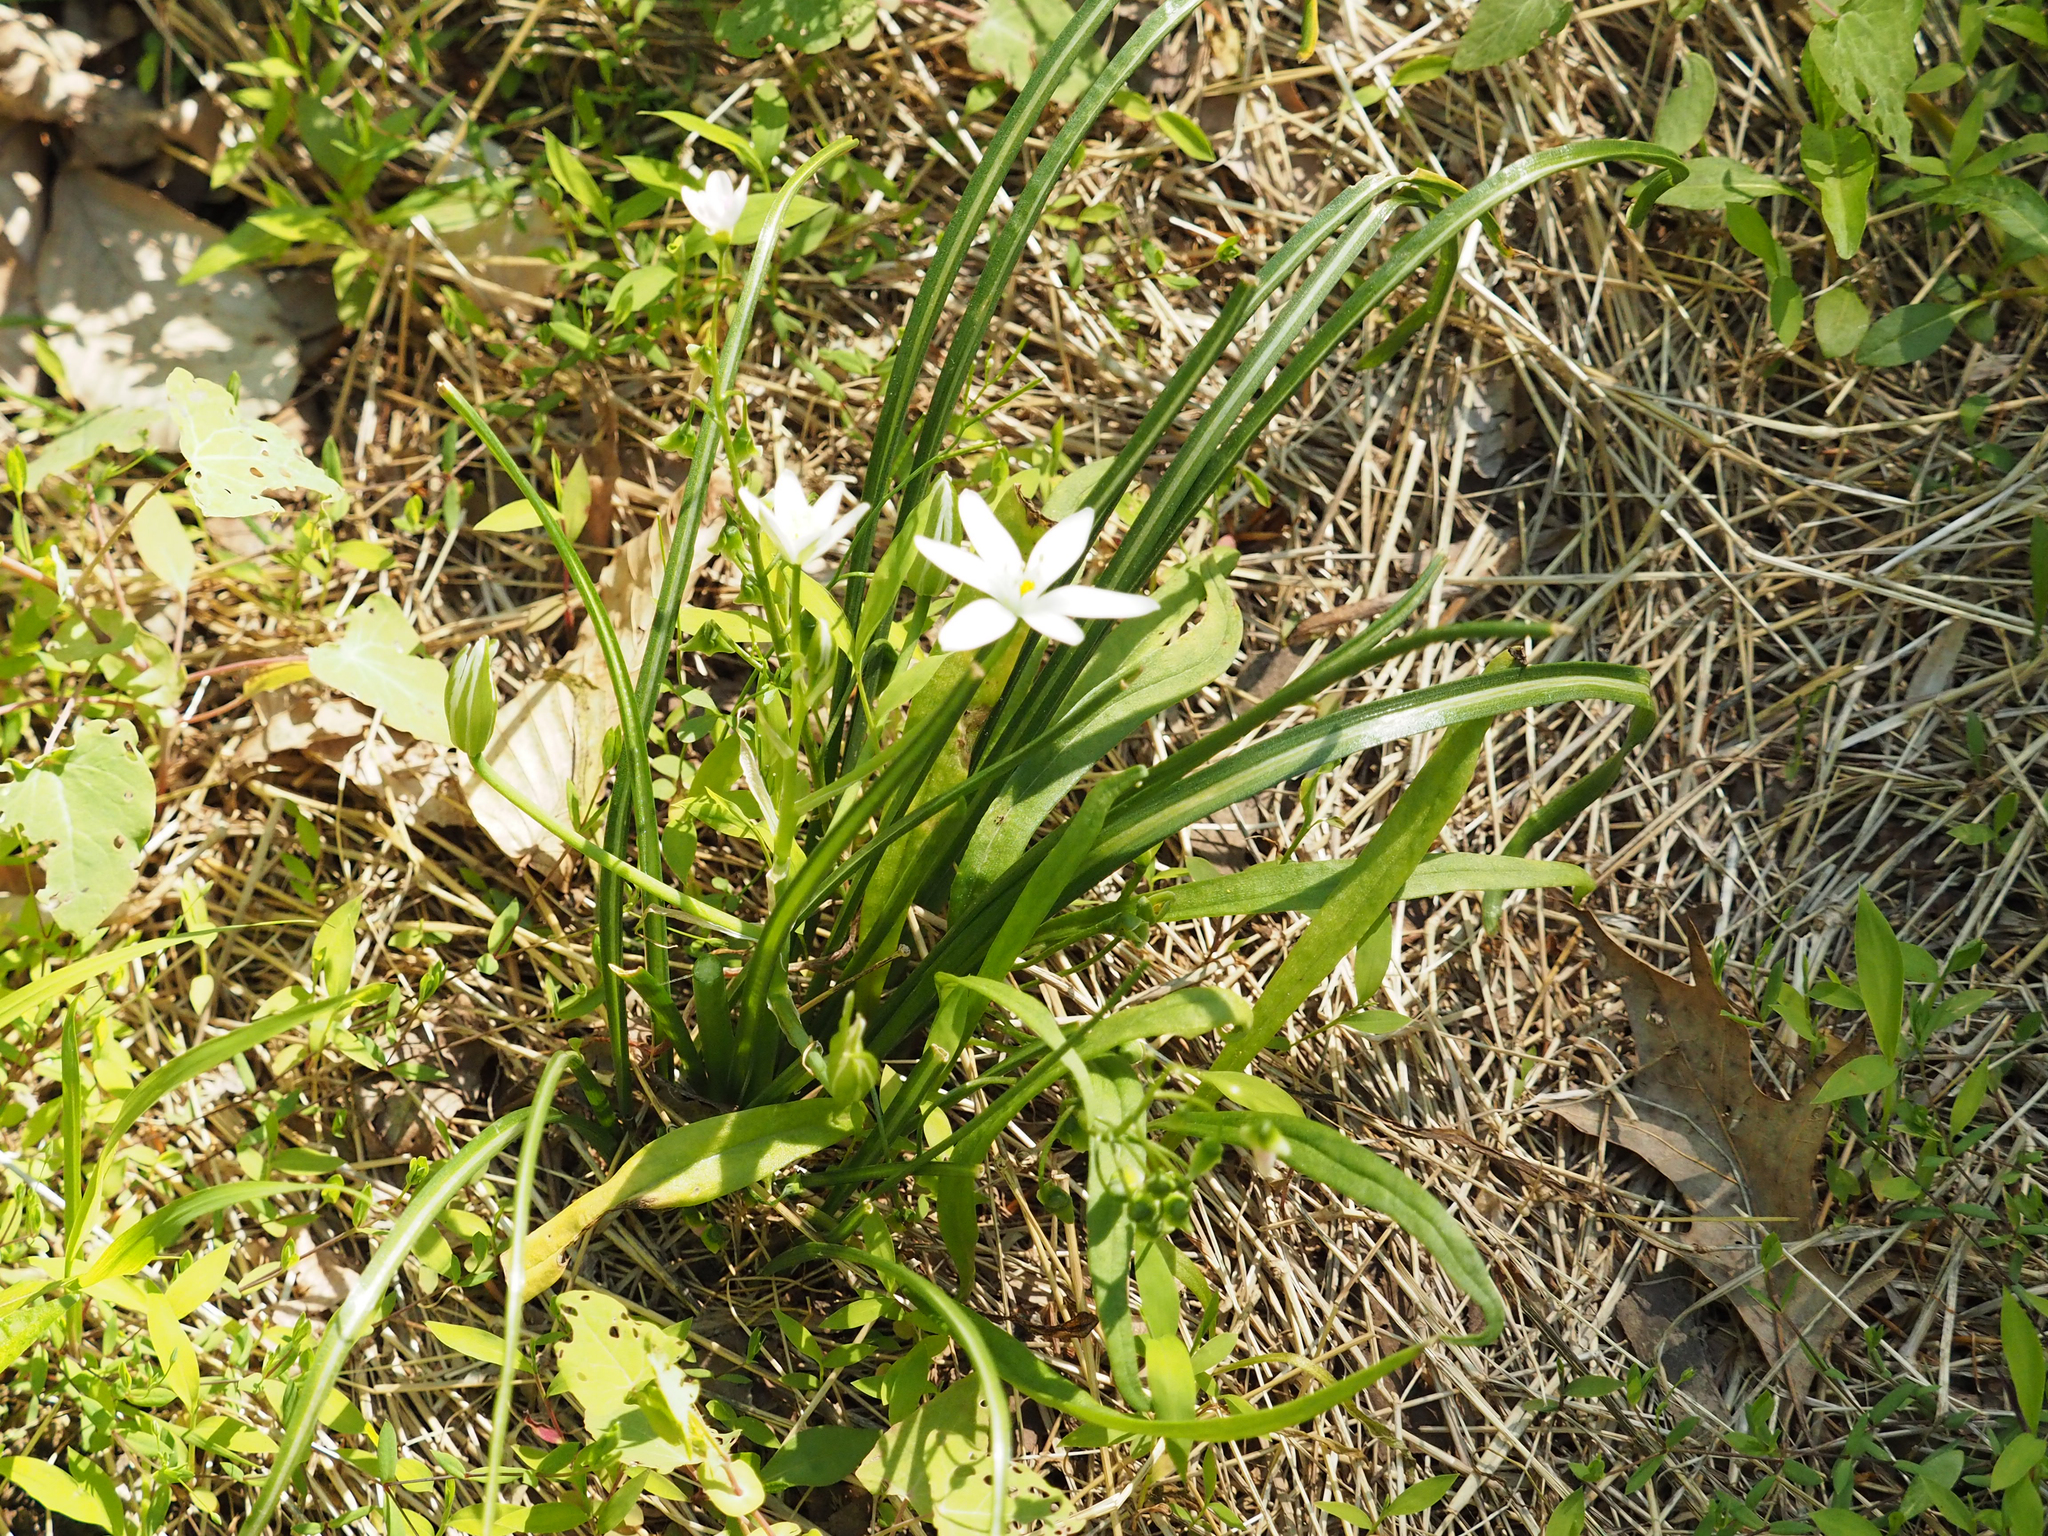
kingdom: Plantae
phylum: Tracheophyta
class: Liliopsida
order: Asparagales
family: Asparagaceae
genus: Ornithogalum
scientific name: Ornithogalum umbellatum
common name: Garden star-of-bethlehem
